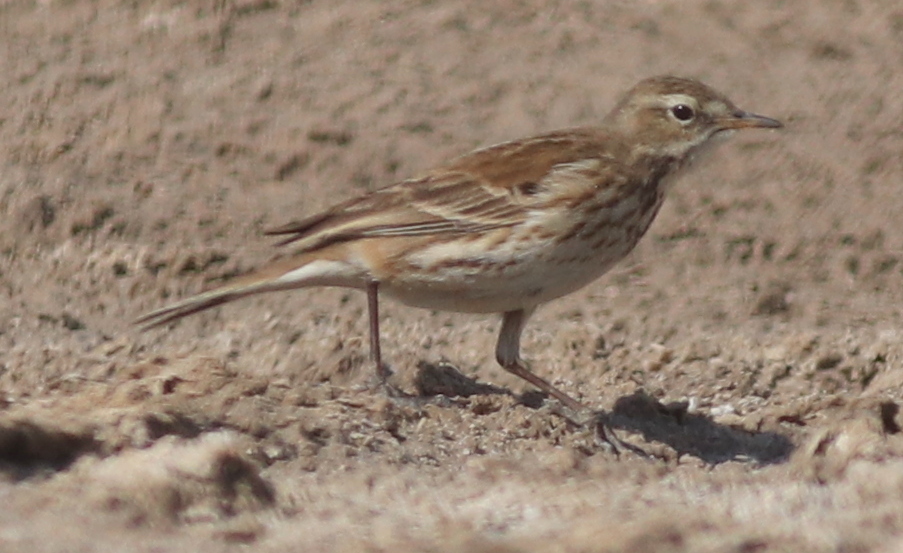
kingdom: Animalia
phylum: Chordata
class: Aves
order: Passeriformes
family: Motacillidae
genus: Anthus
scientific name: Anthus spinoletta
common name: Water pipit
